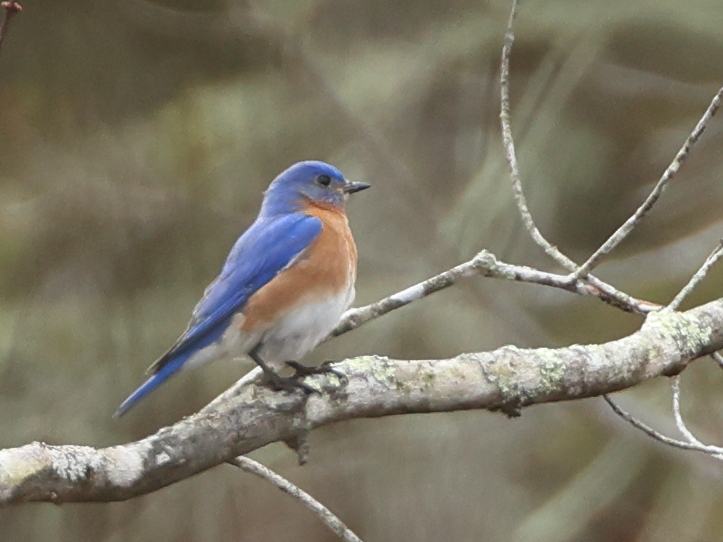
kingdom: Animalia
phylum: Chordata
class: Aves
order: Passeriformes
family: Turdidae
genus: Sialia
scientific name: Sialia sialis
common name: Eastern bluebird
